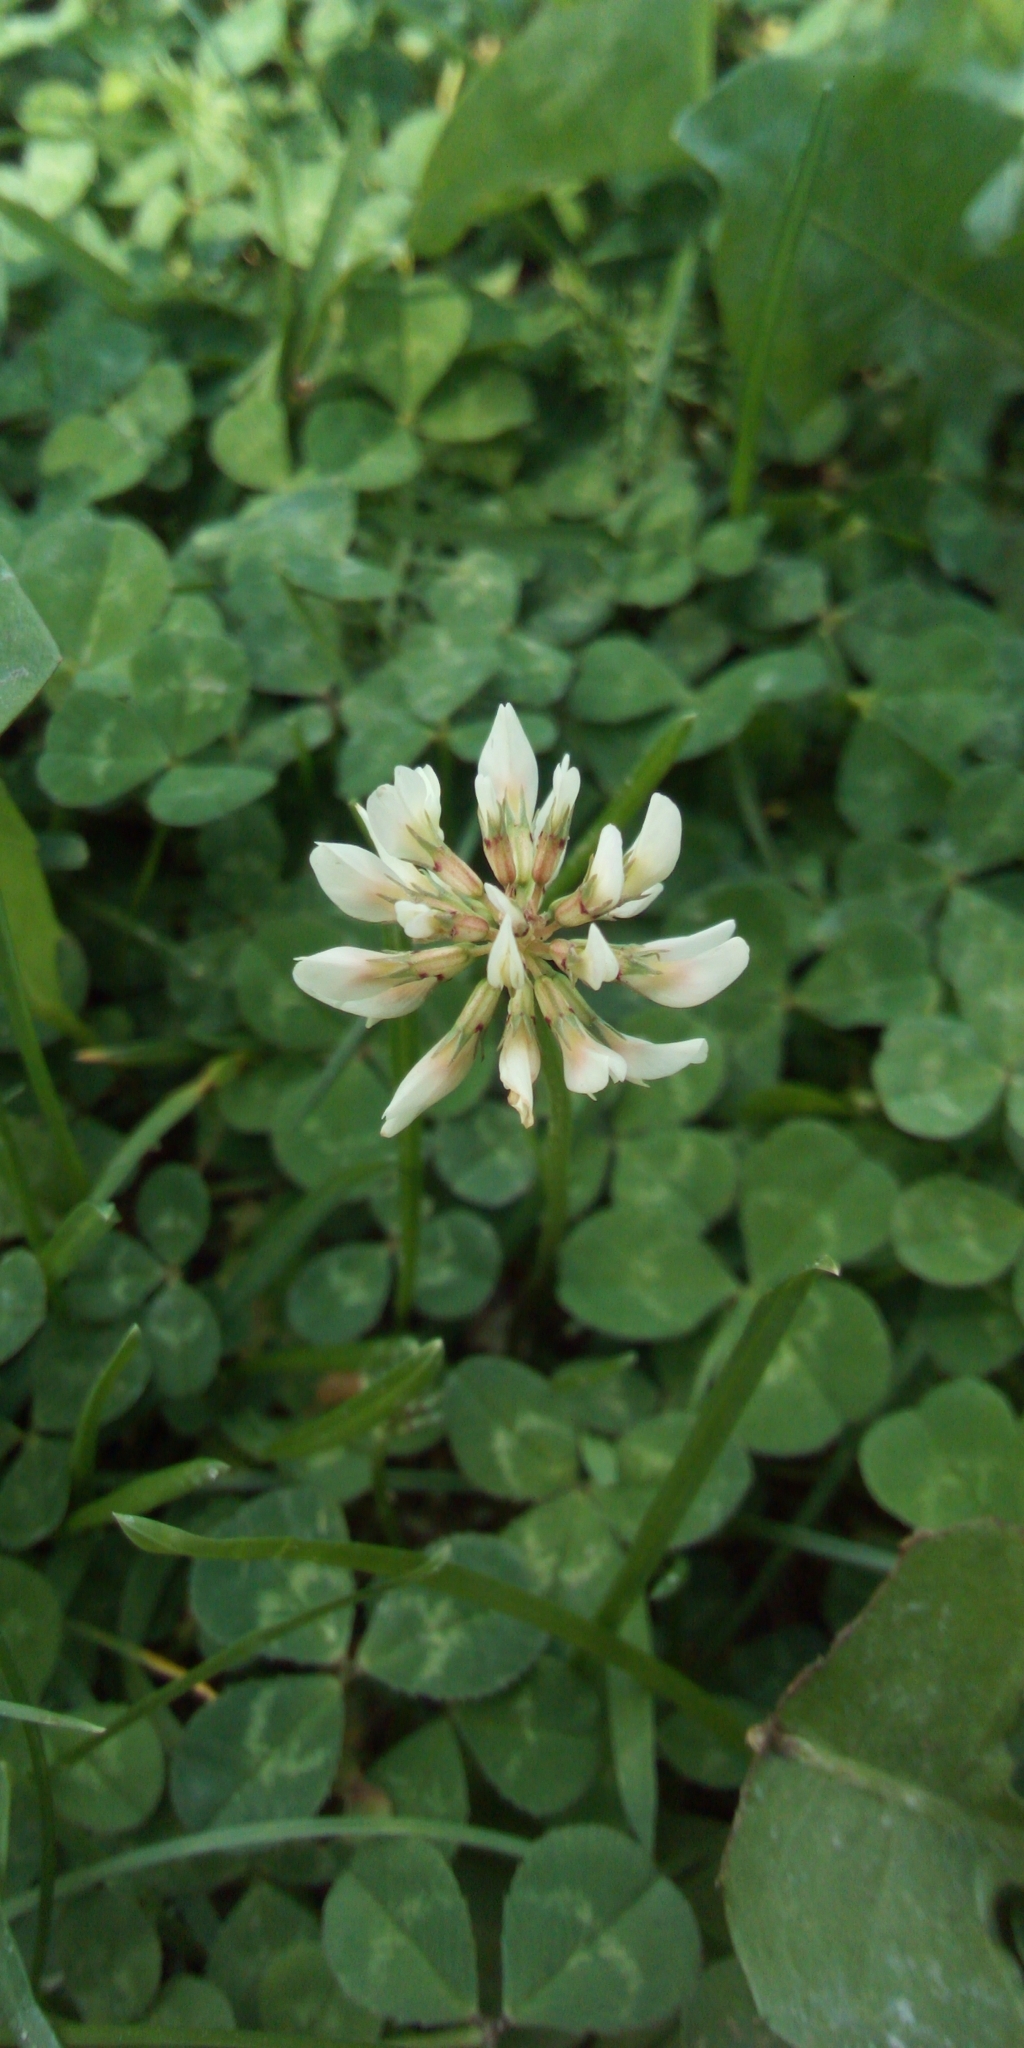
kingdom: Plantae
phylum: Tracheophyta
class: Magnoliopsida
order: Fabales
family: Fabaceae
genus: Trifolium
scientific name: Trifolium repens
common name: White clover
